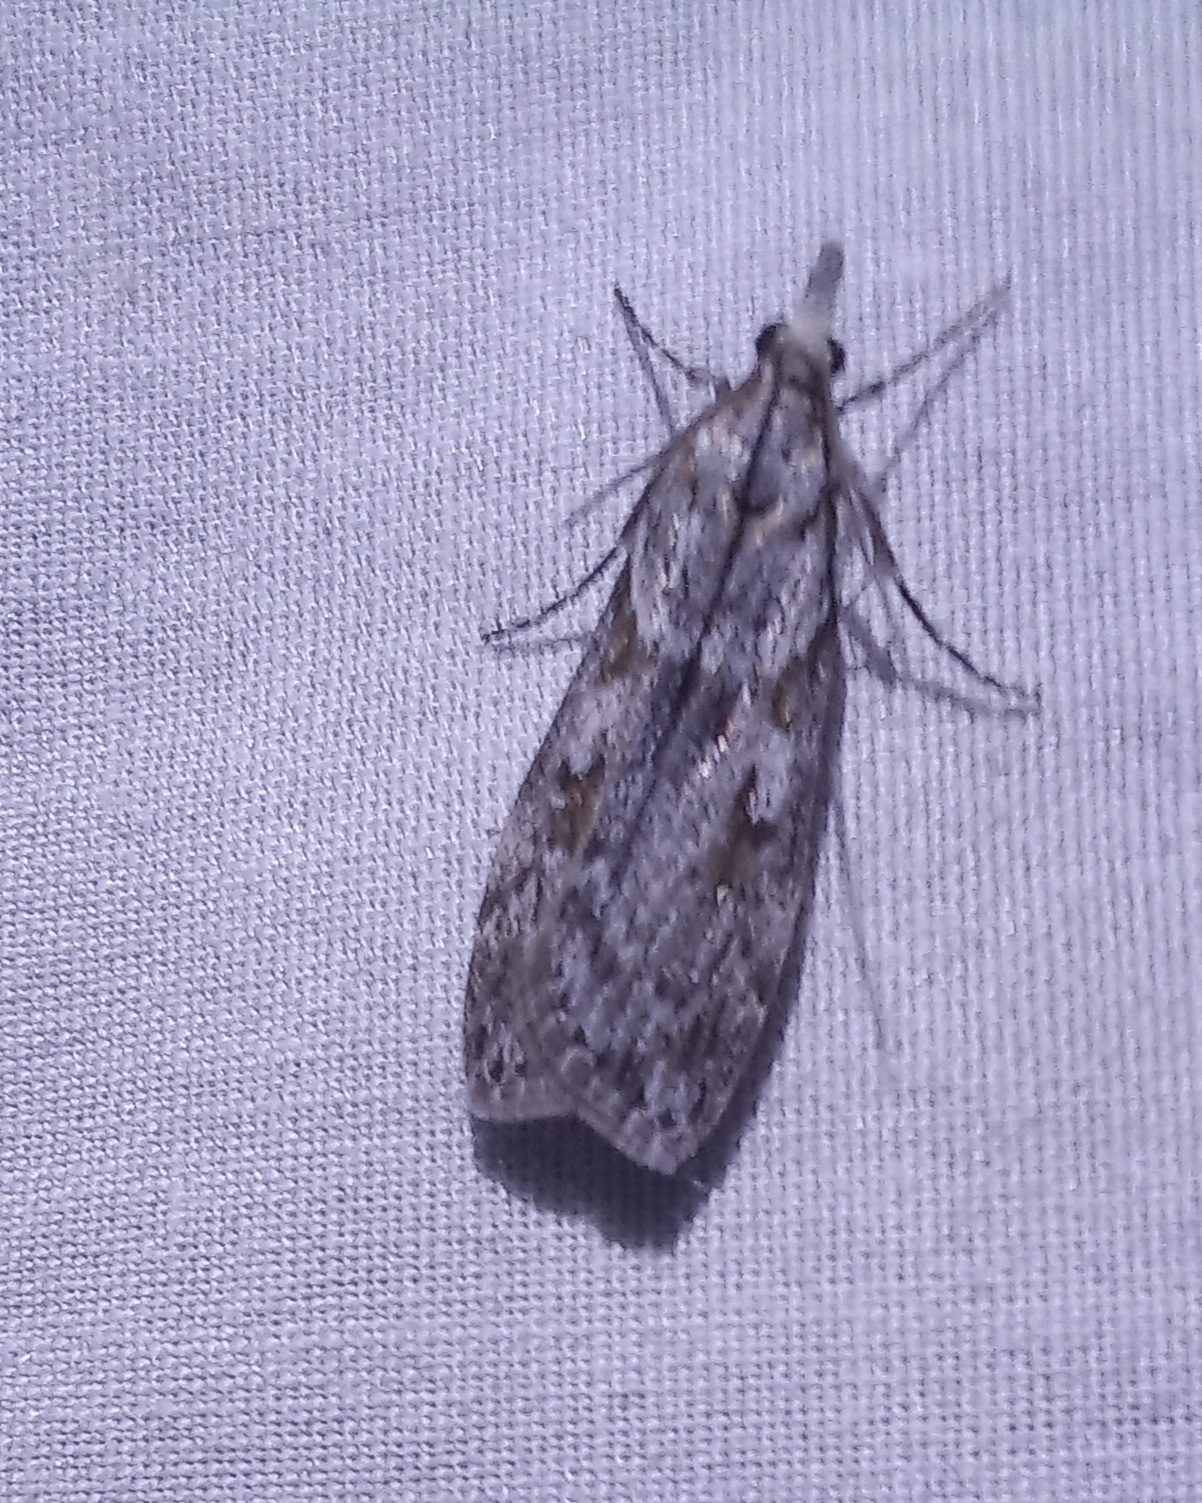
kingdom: Animalia
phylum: Arthropoda
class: Insecta
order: Lepidoptera
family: Crambidae
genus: Scoparia
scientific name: Scoparia halopis
